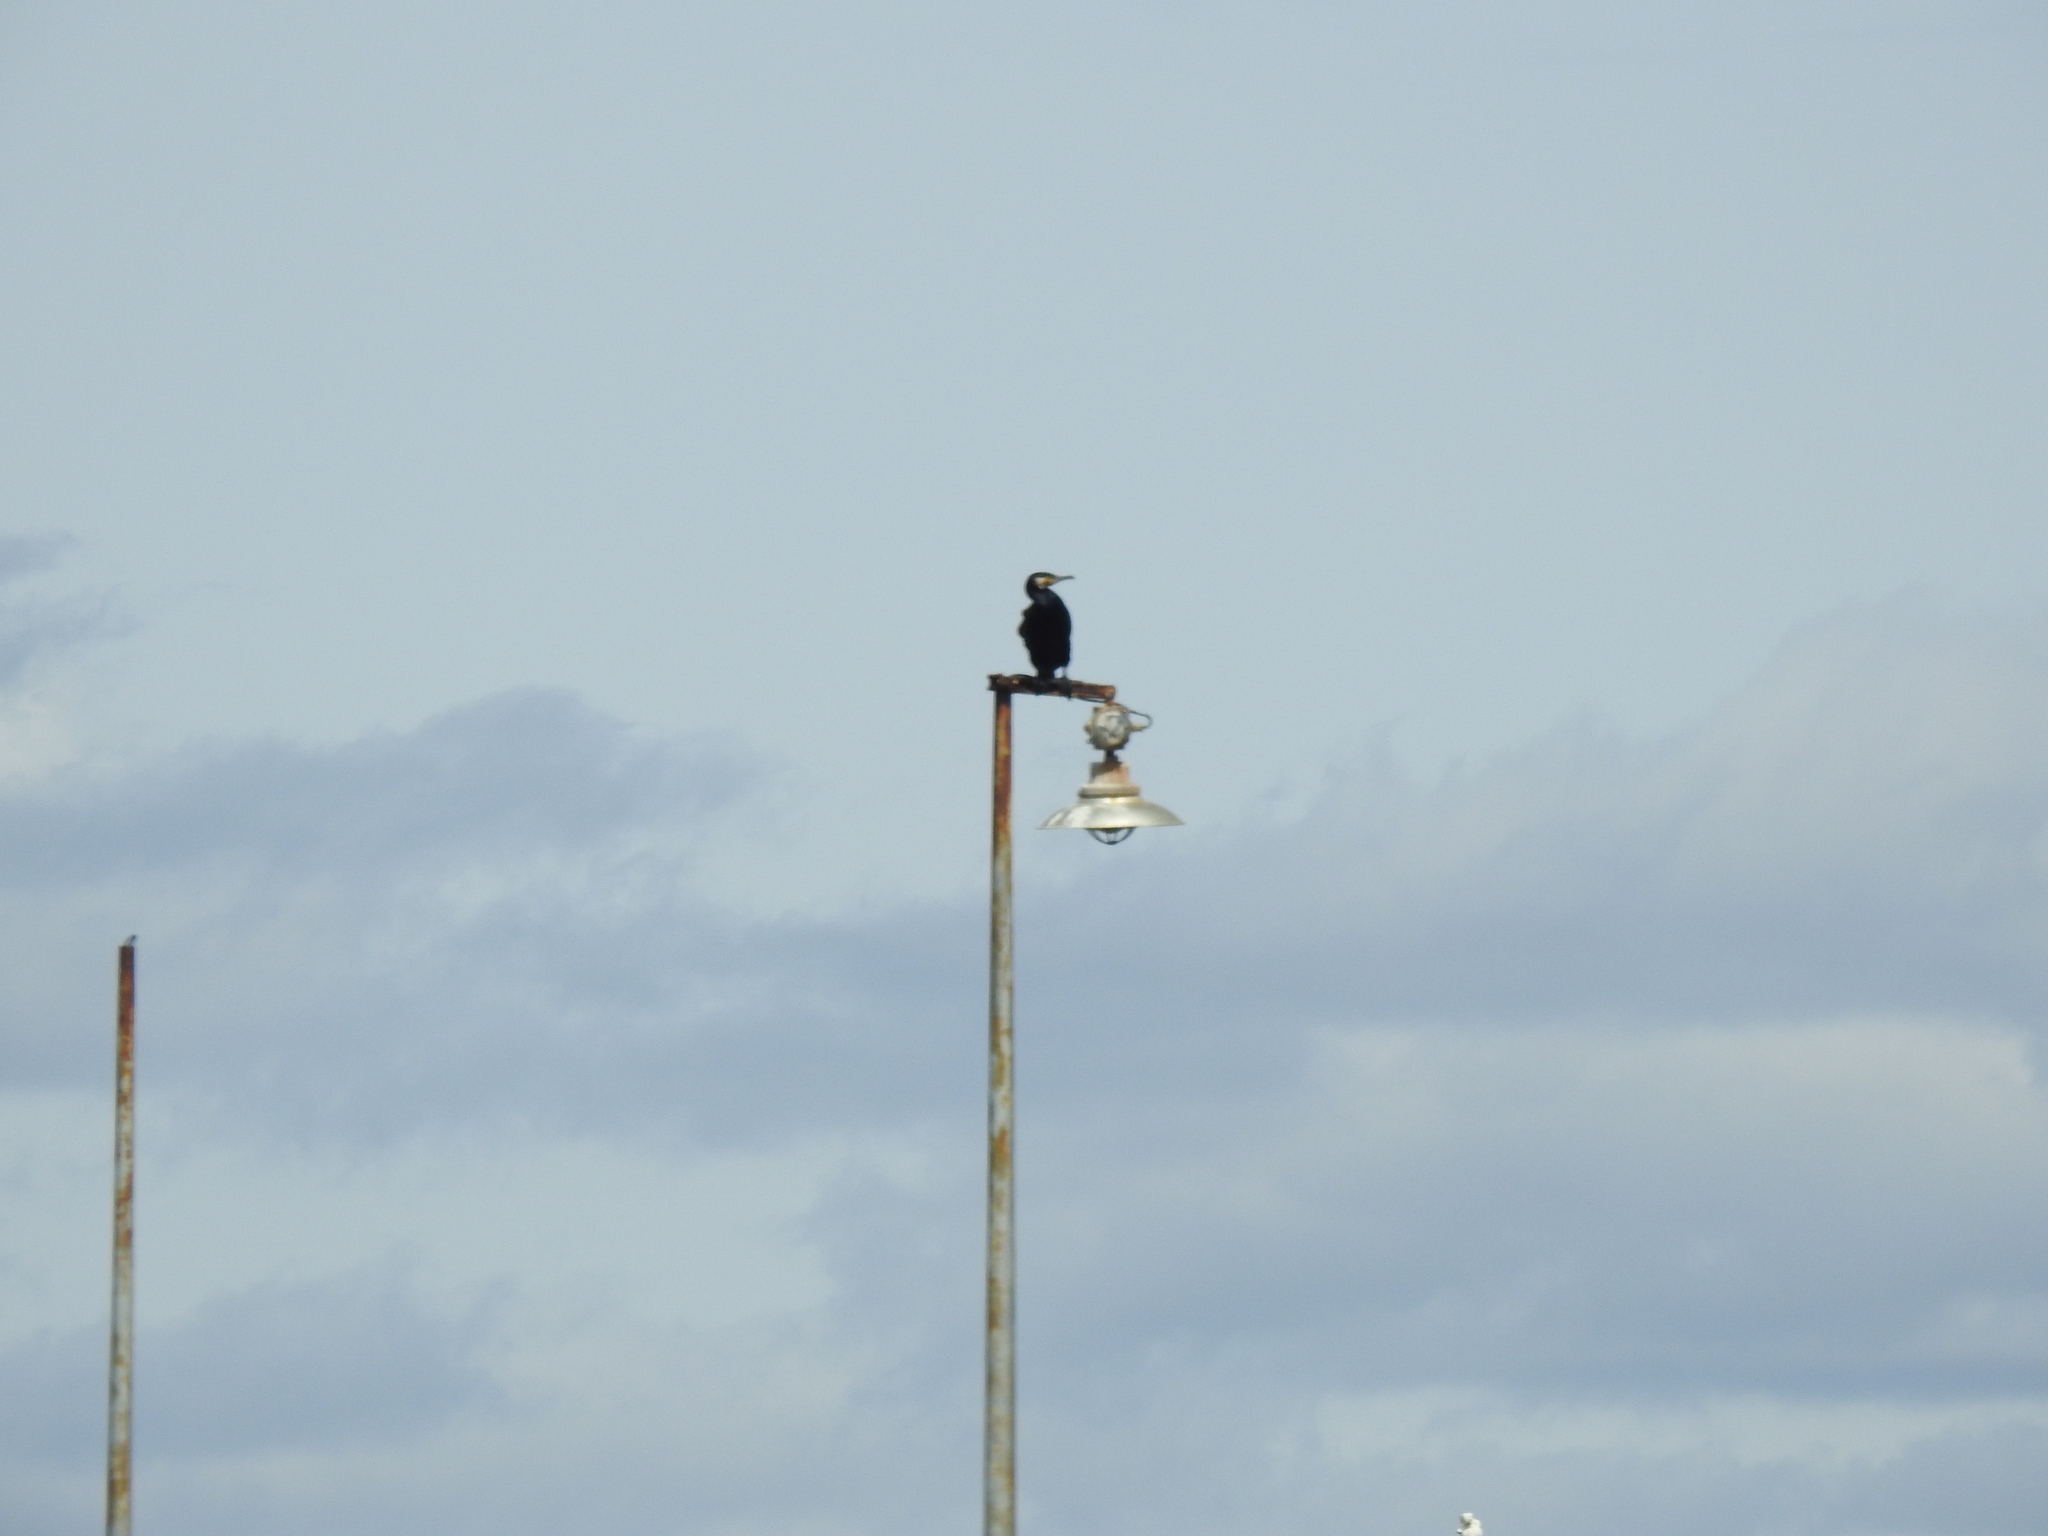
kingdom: Animalia
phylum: Chordata
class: Aves
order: Suliformes
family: Phalacrocoracidae
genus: Phalacrocorax
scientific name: Phalacrocorax carbo
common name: Great cormorant
